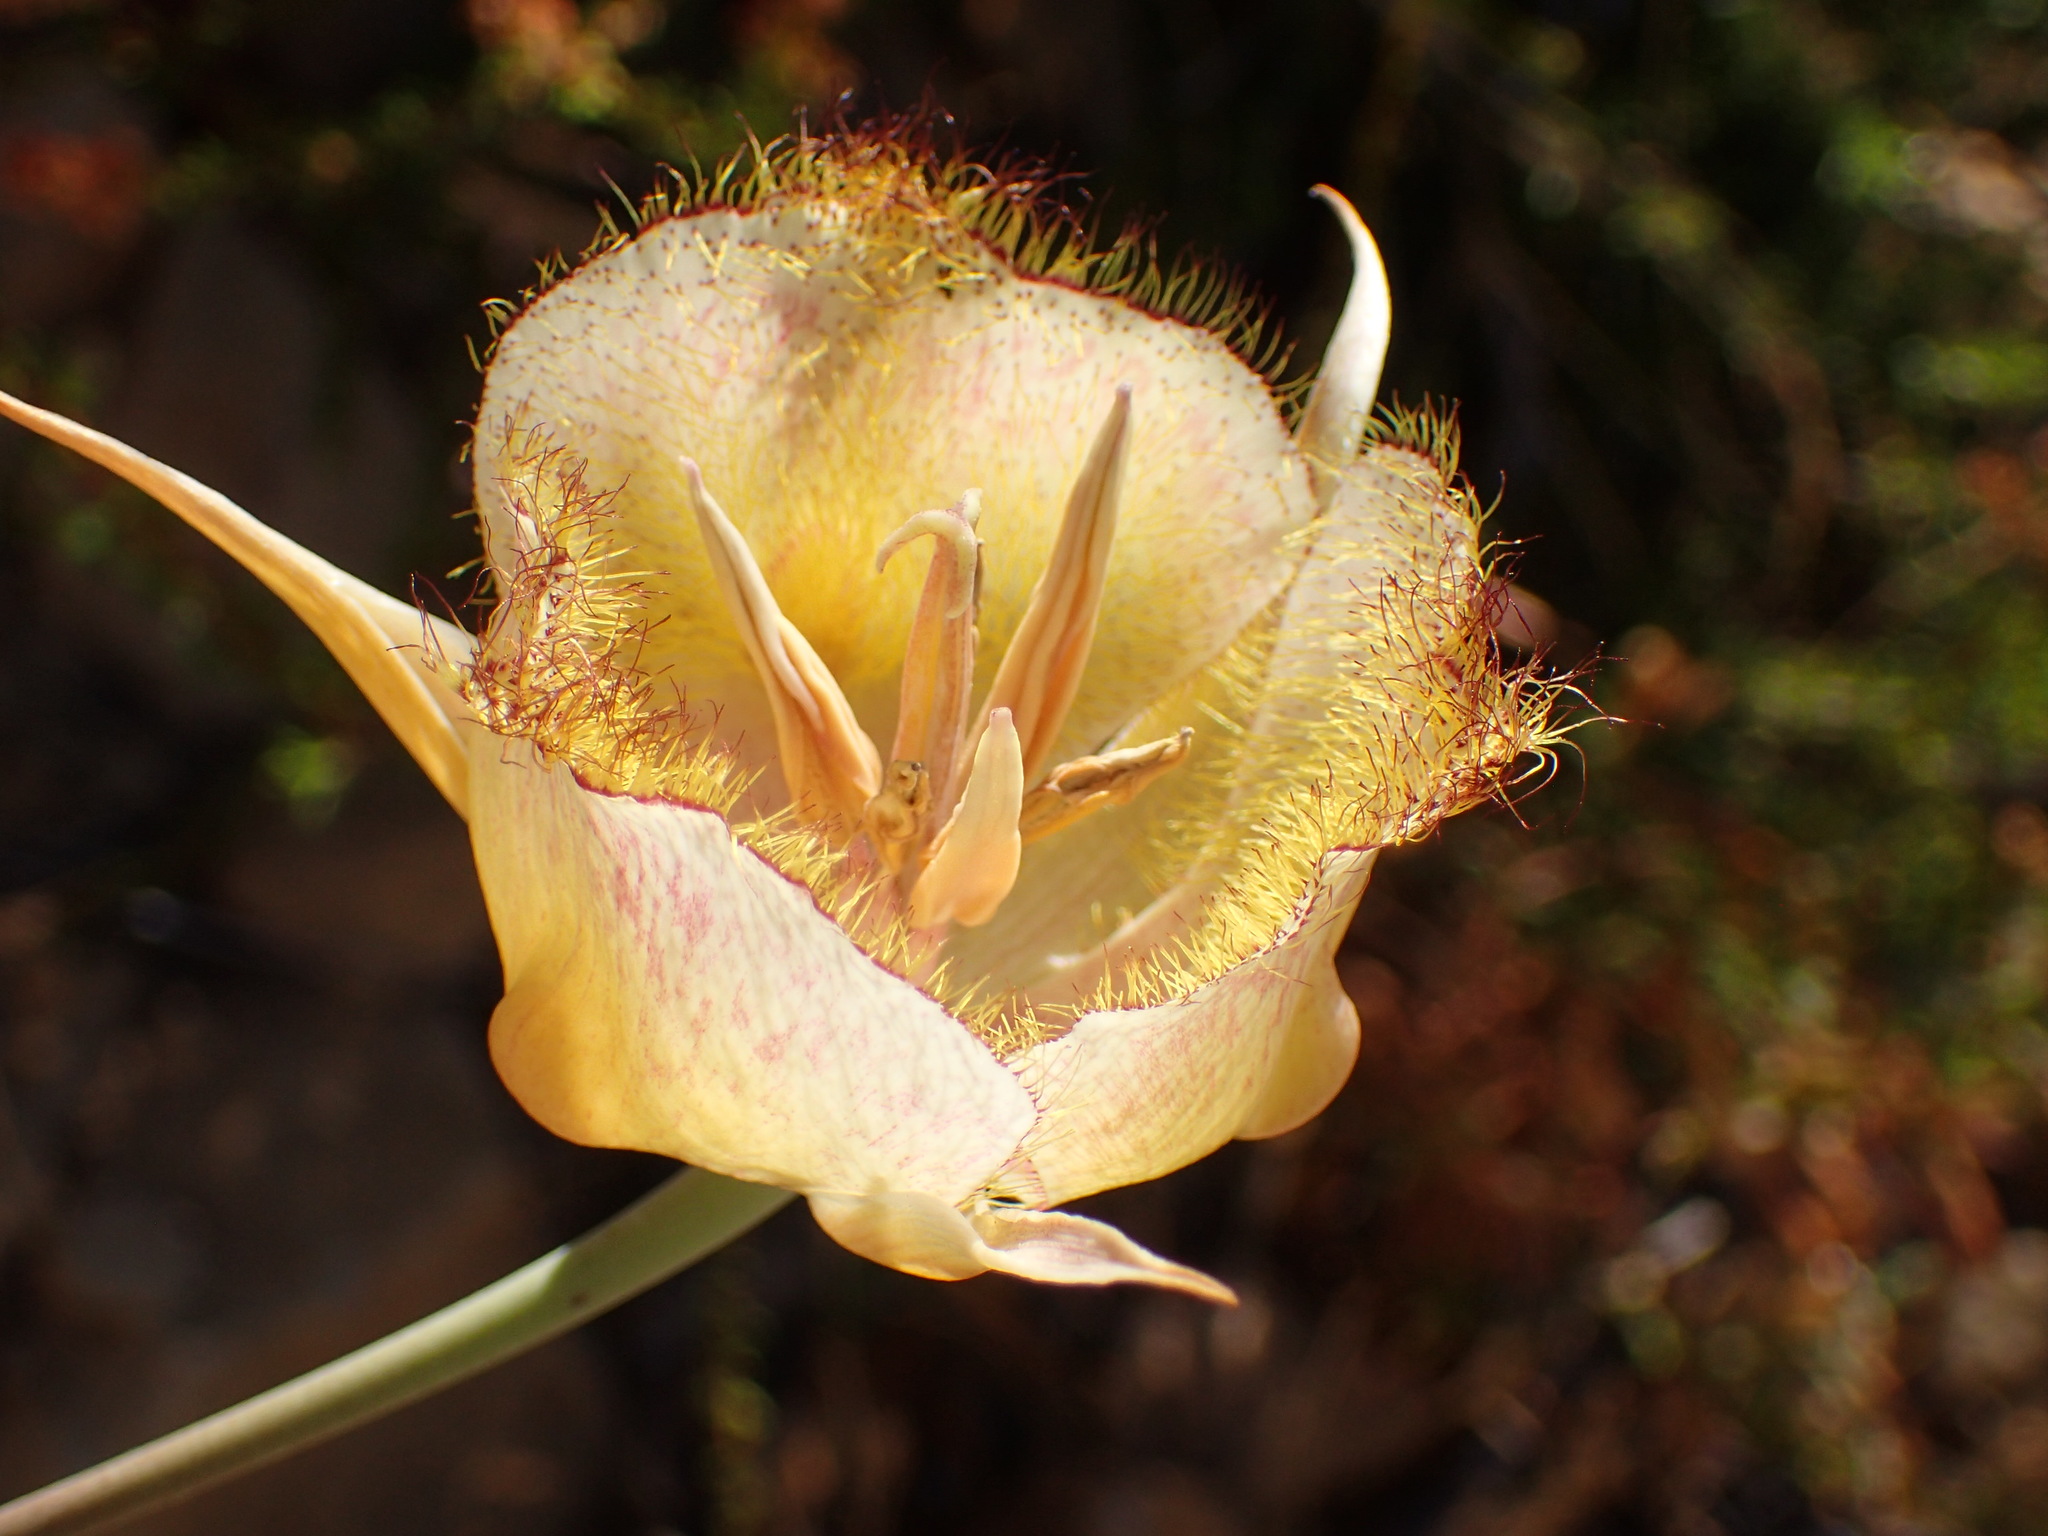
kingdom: Plantae
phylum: Tracheophyta
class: Liliopsida
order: Liliales
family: Liliaceae
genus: Calochortus
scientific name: Calochortus fimbriatus
